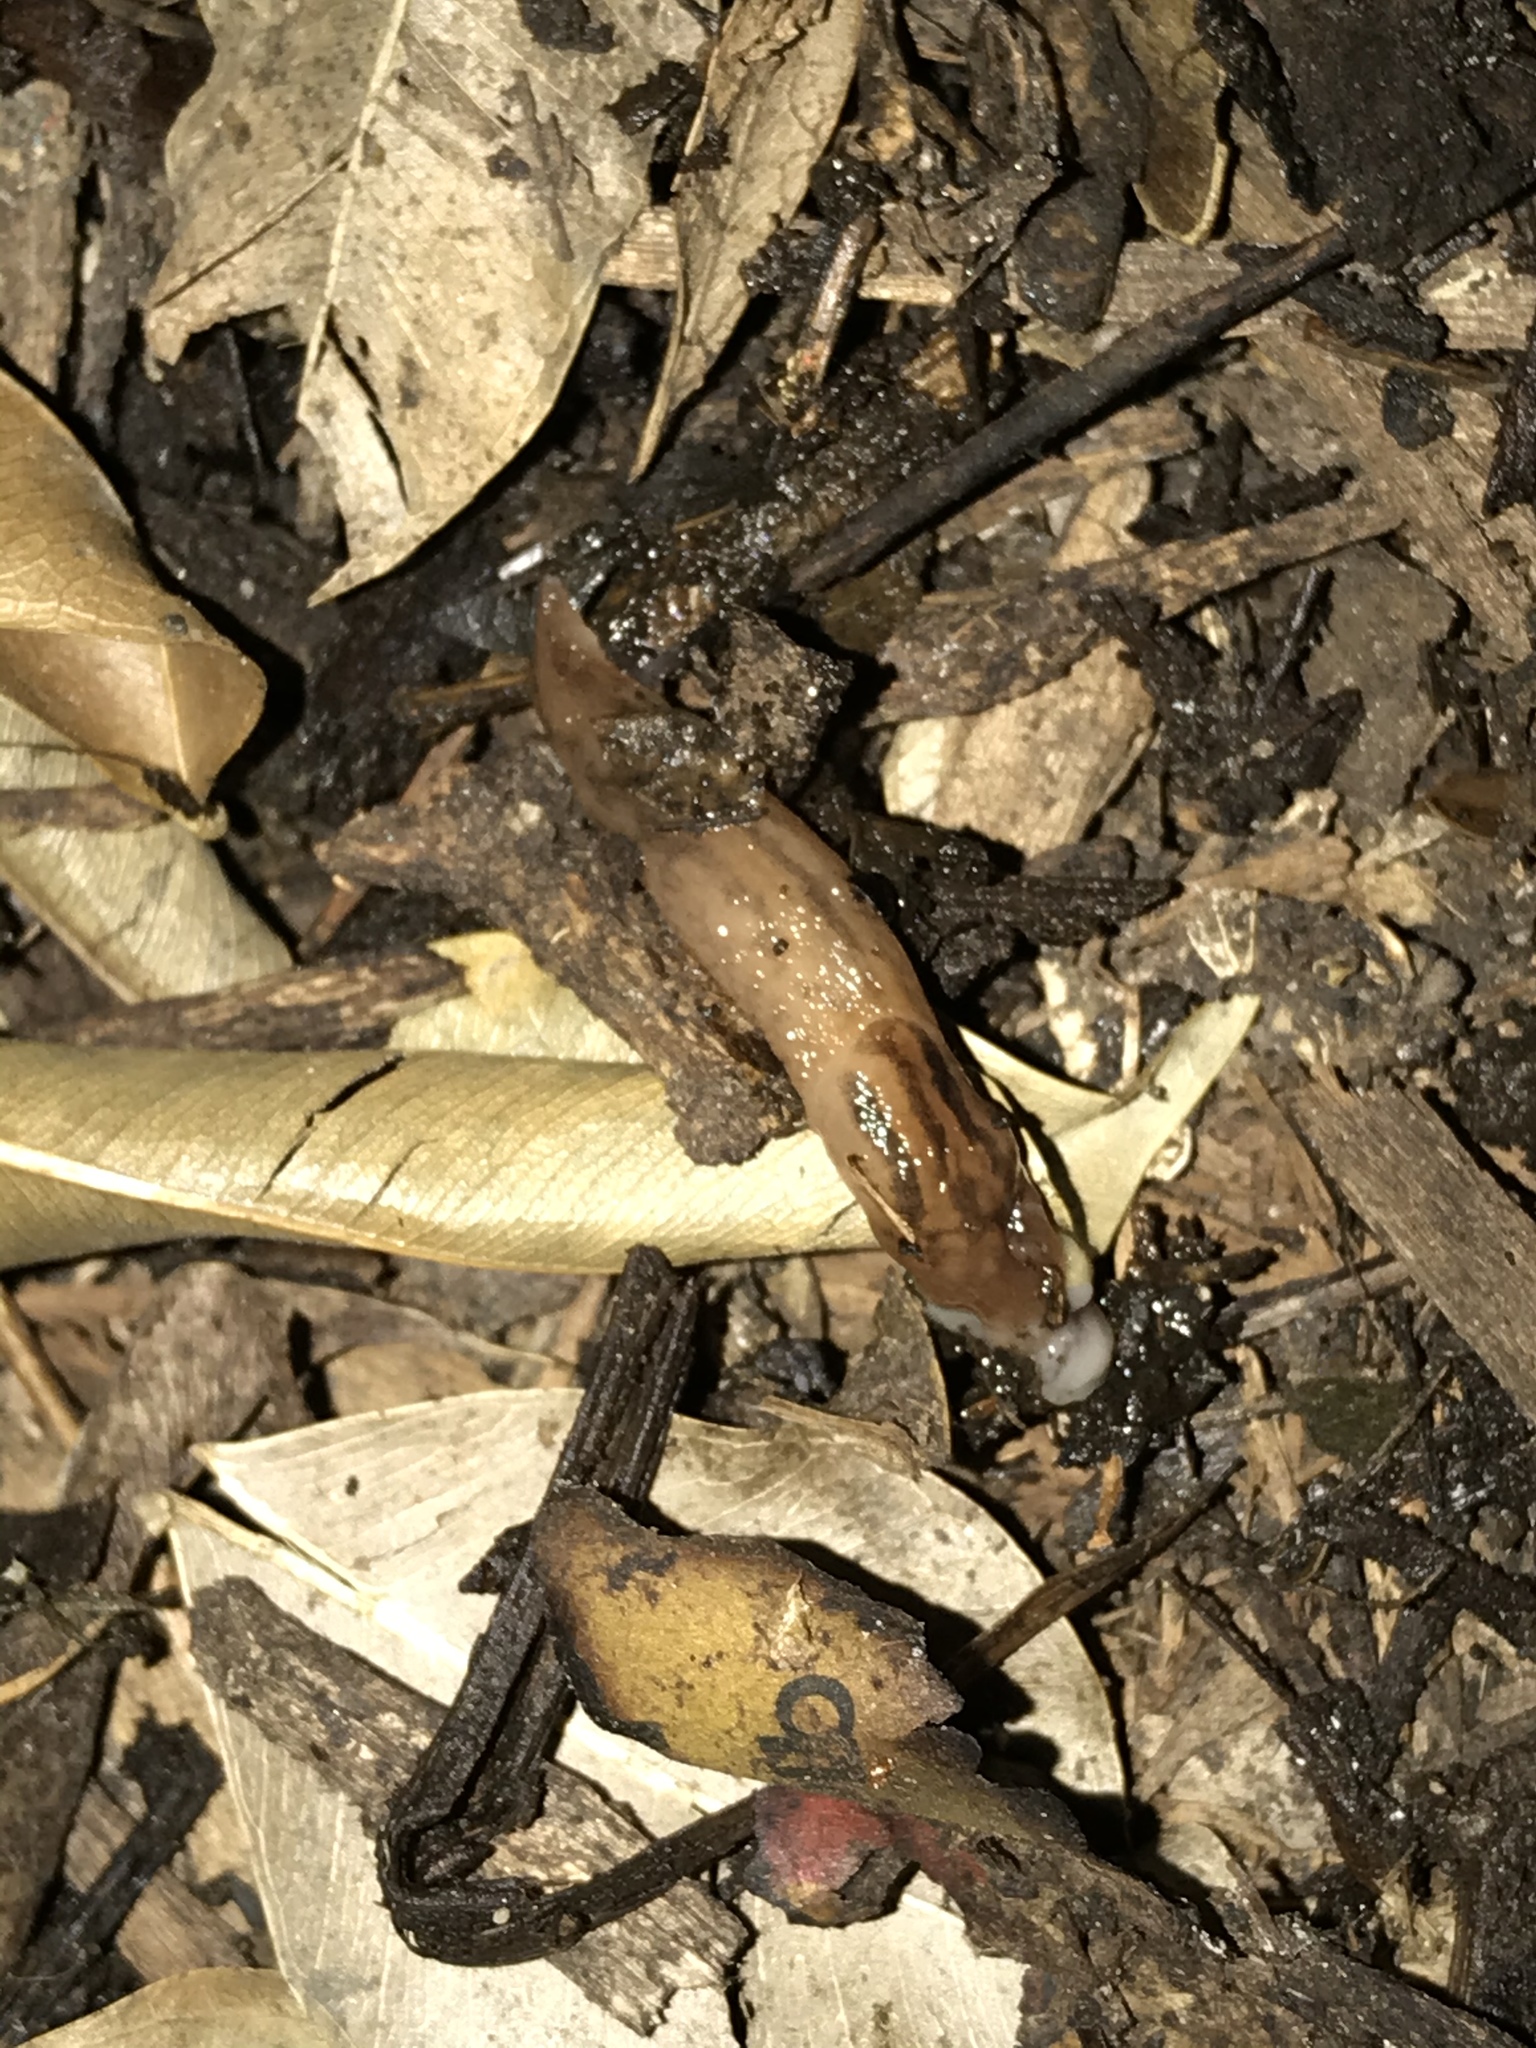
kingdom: Animalia
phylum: Mollusca
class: Gastropoda
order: Stylommatophora
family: Limacidae
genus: Ambigolimax
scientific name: Ambigolimax
